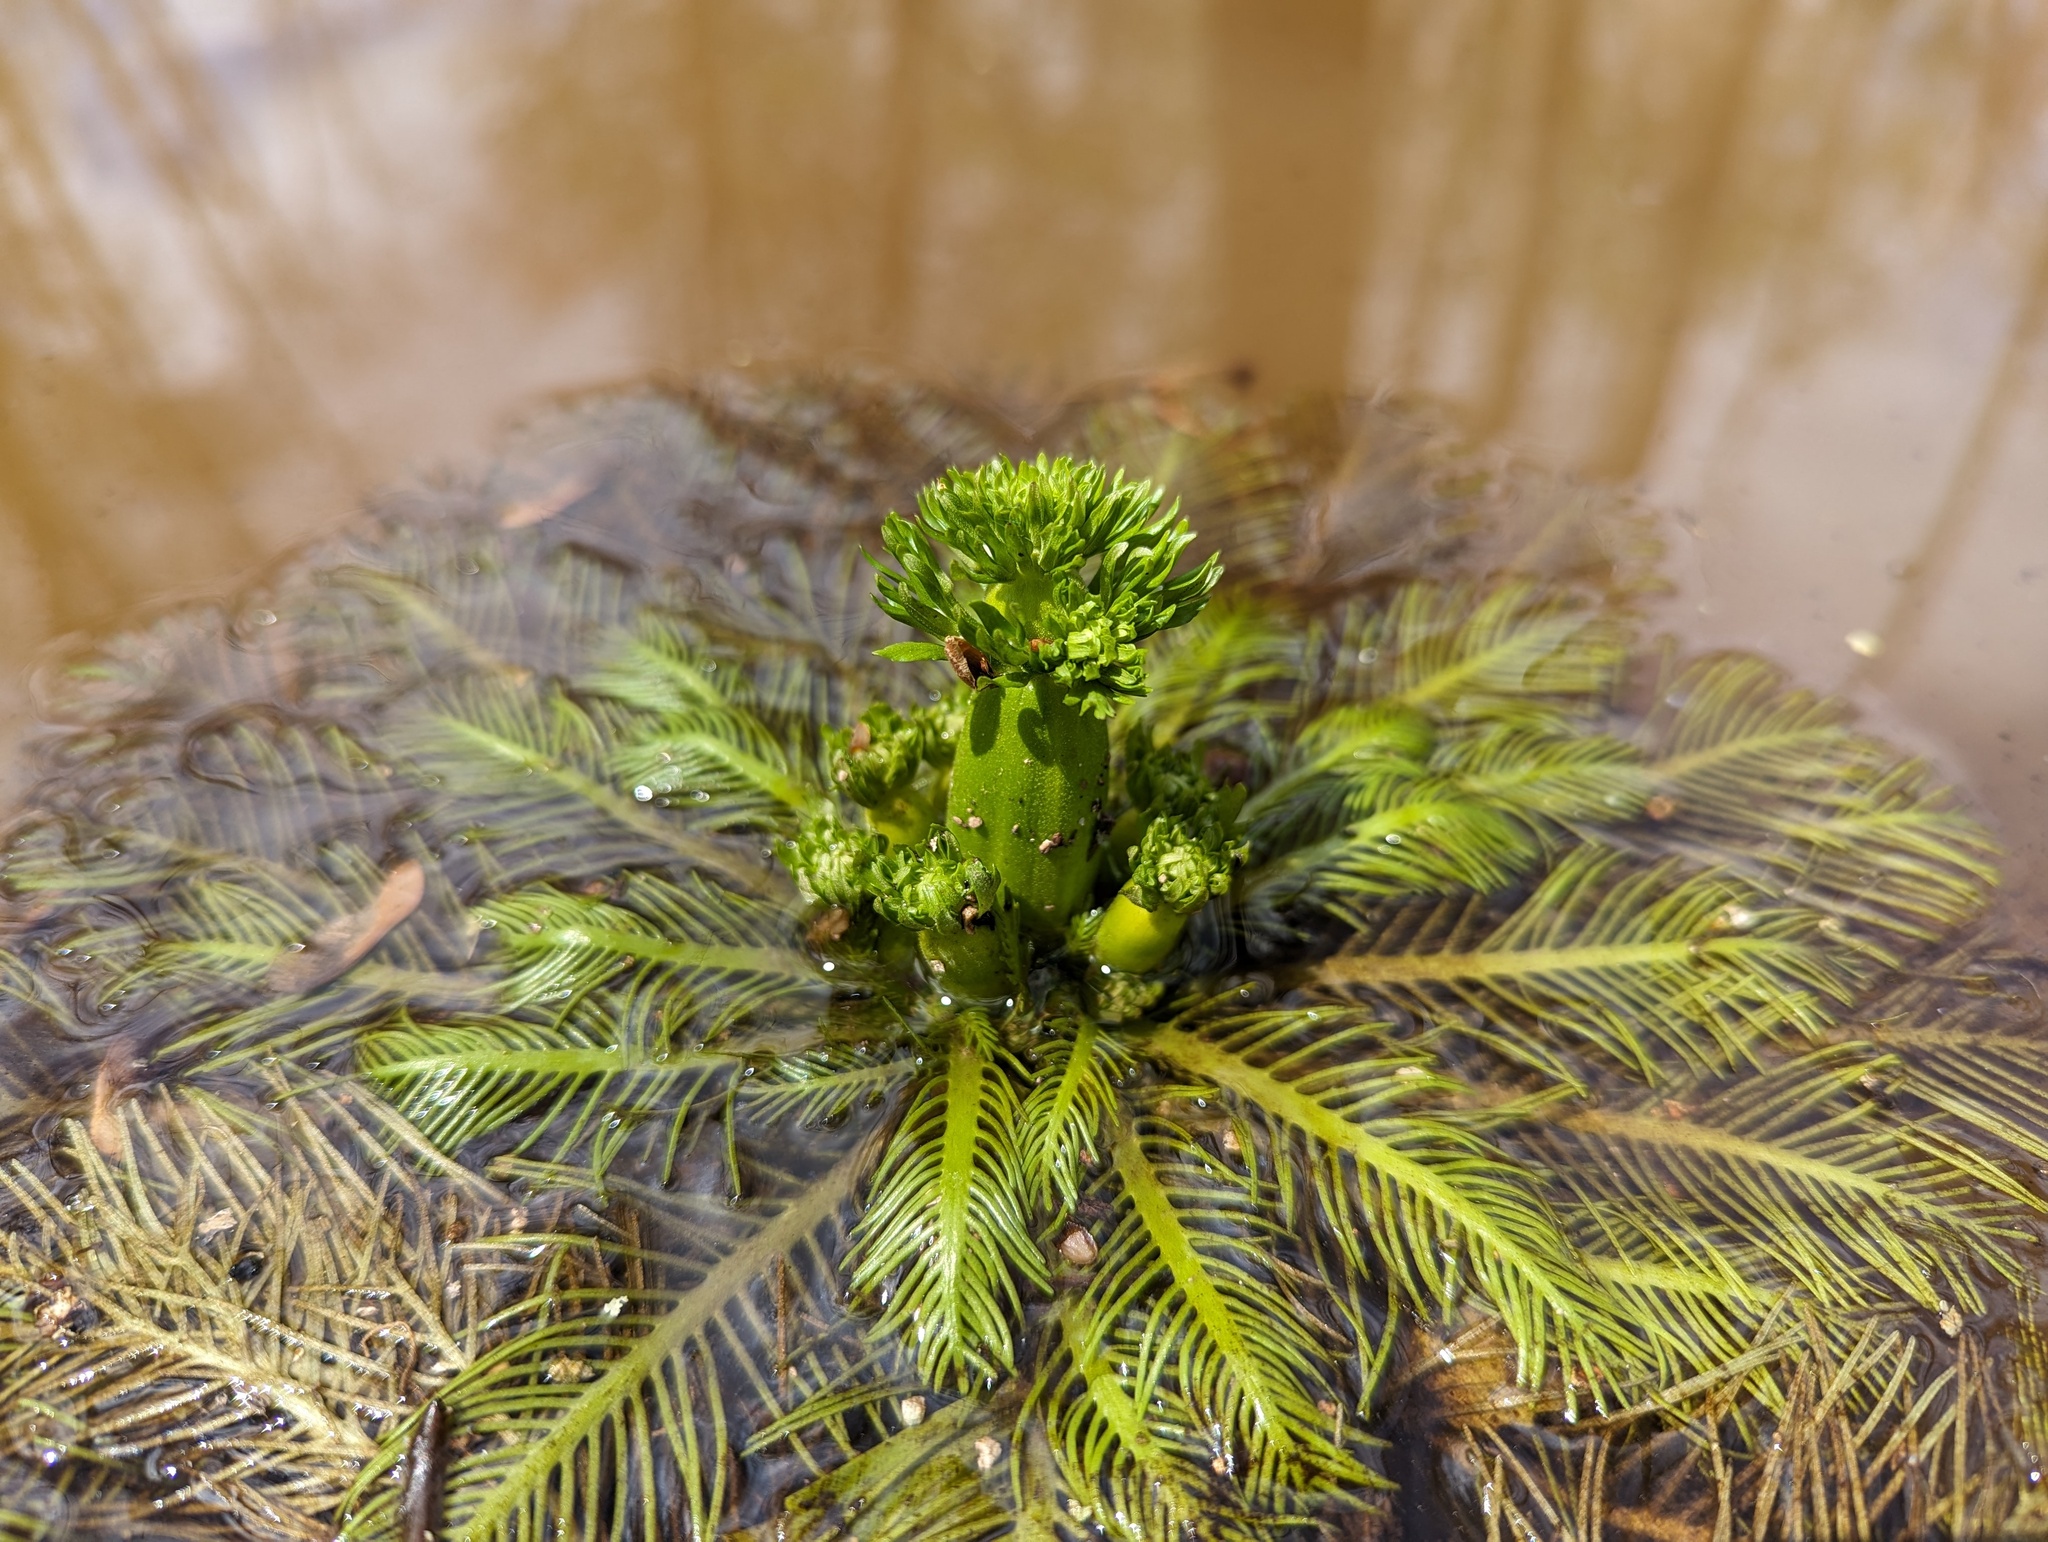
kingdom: Plantae
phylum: Tracheophyta
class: Magnoliopsida
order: Ericales
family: Primulaceae
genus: Hottonia
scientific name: Hottonia inflata
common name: American featherfoil
